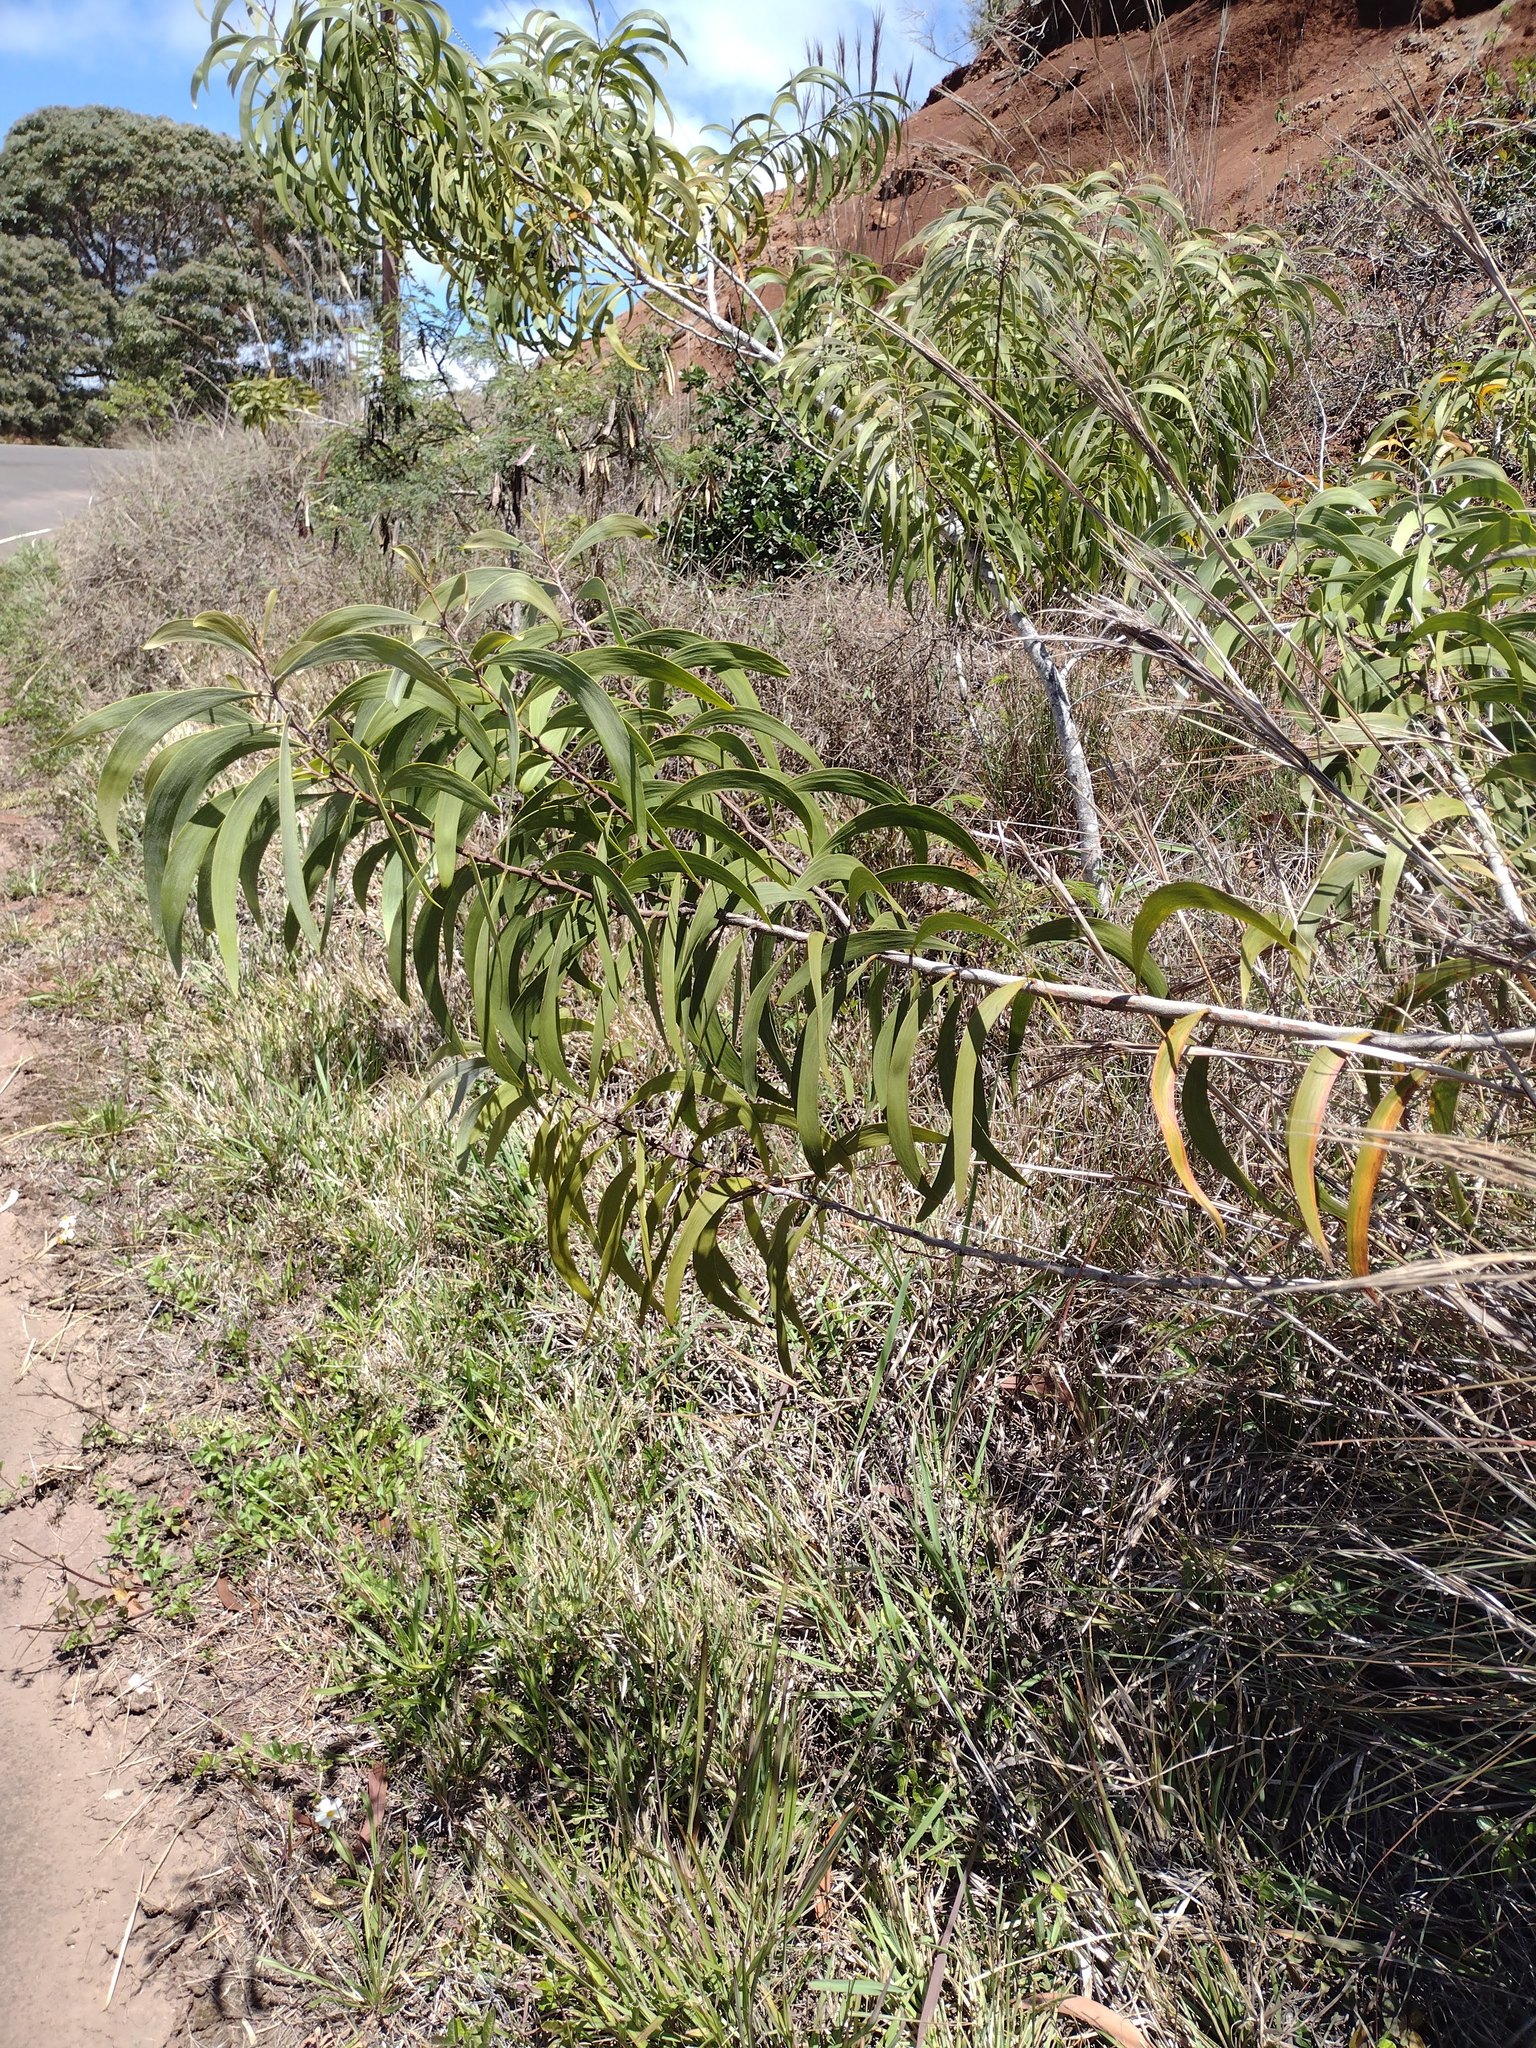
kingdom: Plantae
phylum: Tracheophyta
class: Magnoliopsida
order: Fabales
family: Fabaceae
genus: Acacia
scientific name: Acacia koa
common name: Gray koa
